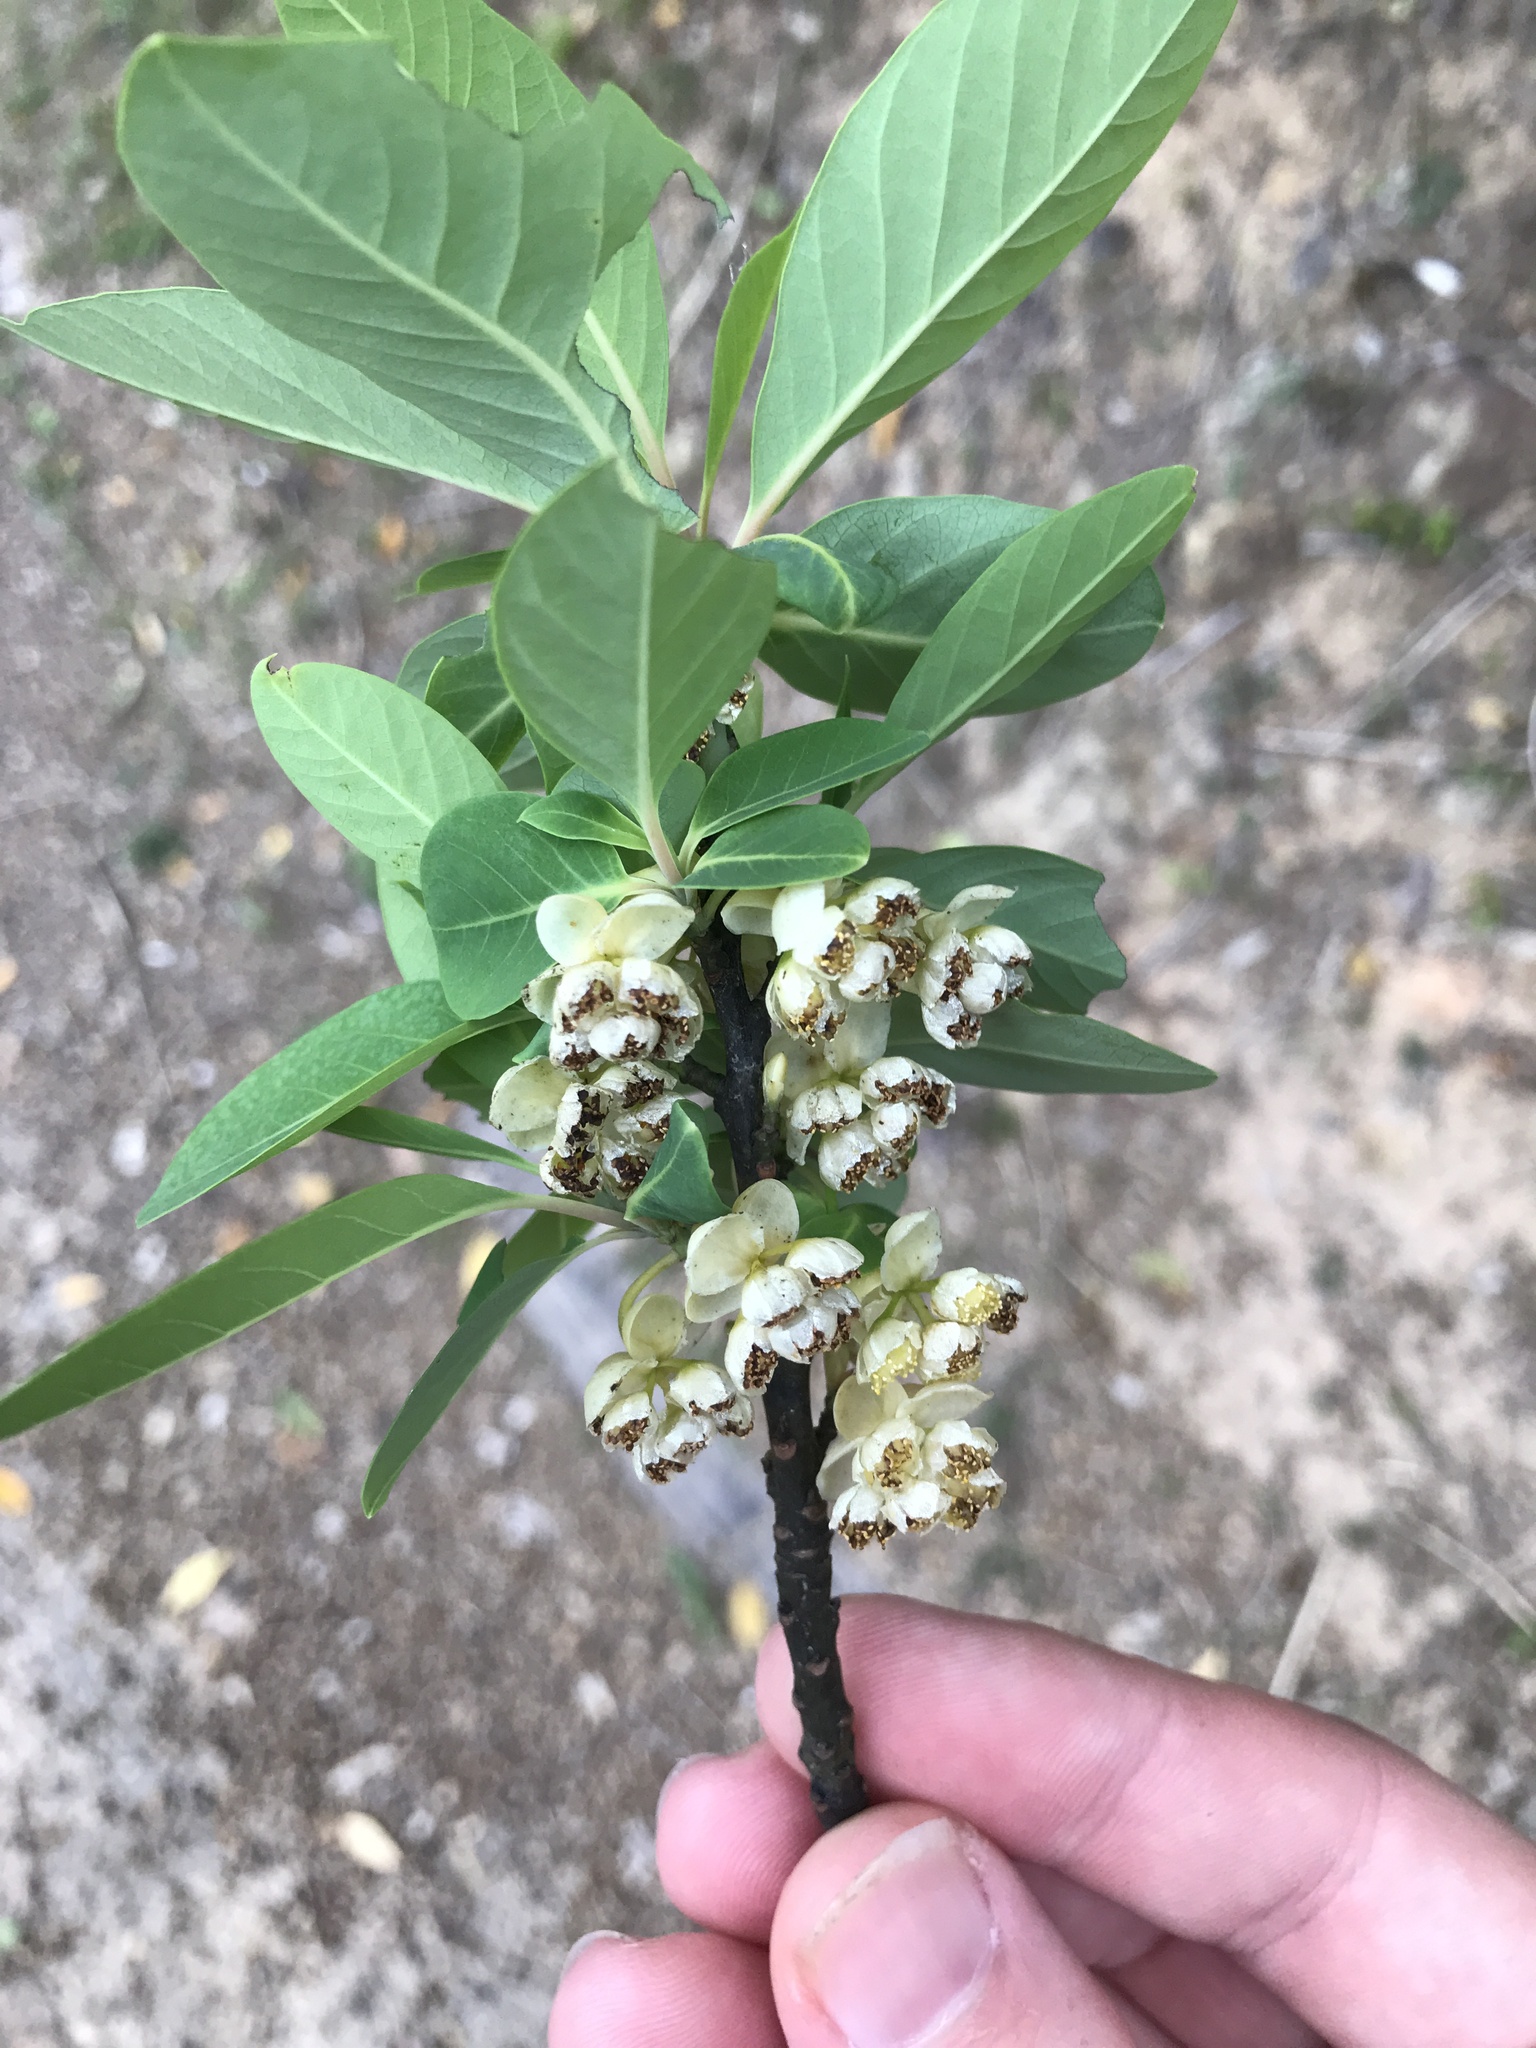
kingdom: Plantae
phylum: Tracheophyta
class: Magnoliopsida
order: Laurales
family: Lauraceae
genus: Litsea
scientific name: Litsea cubeba
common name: Mountain-pepper
